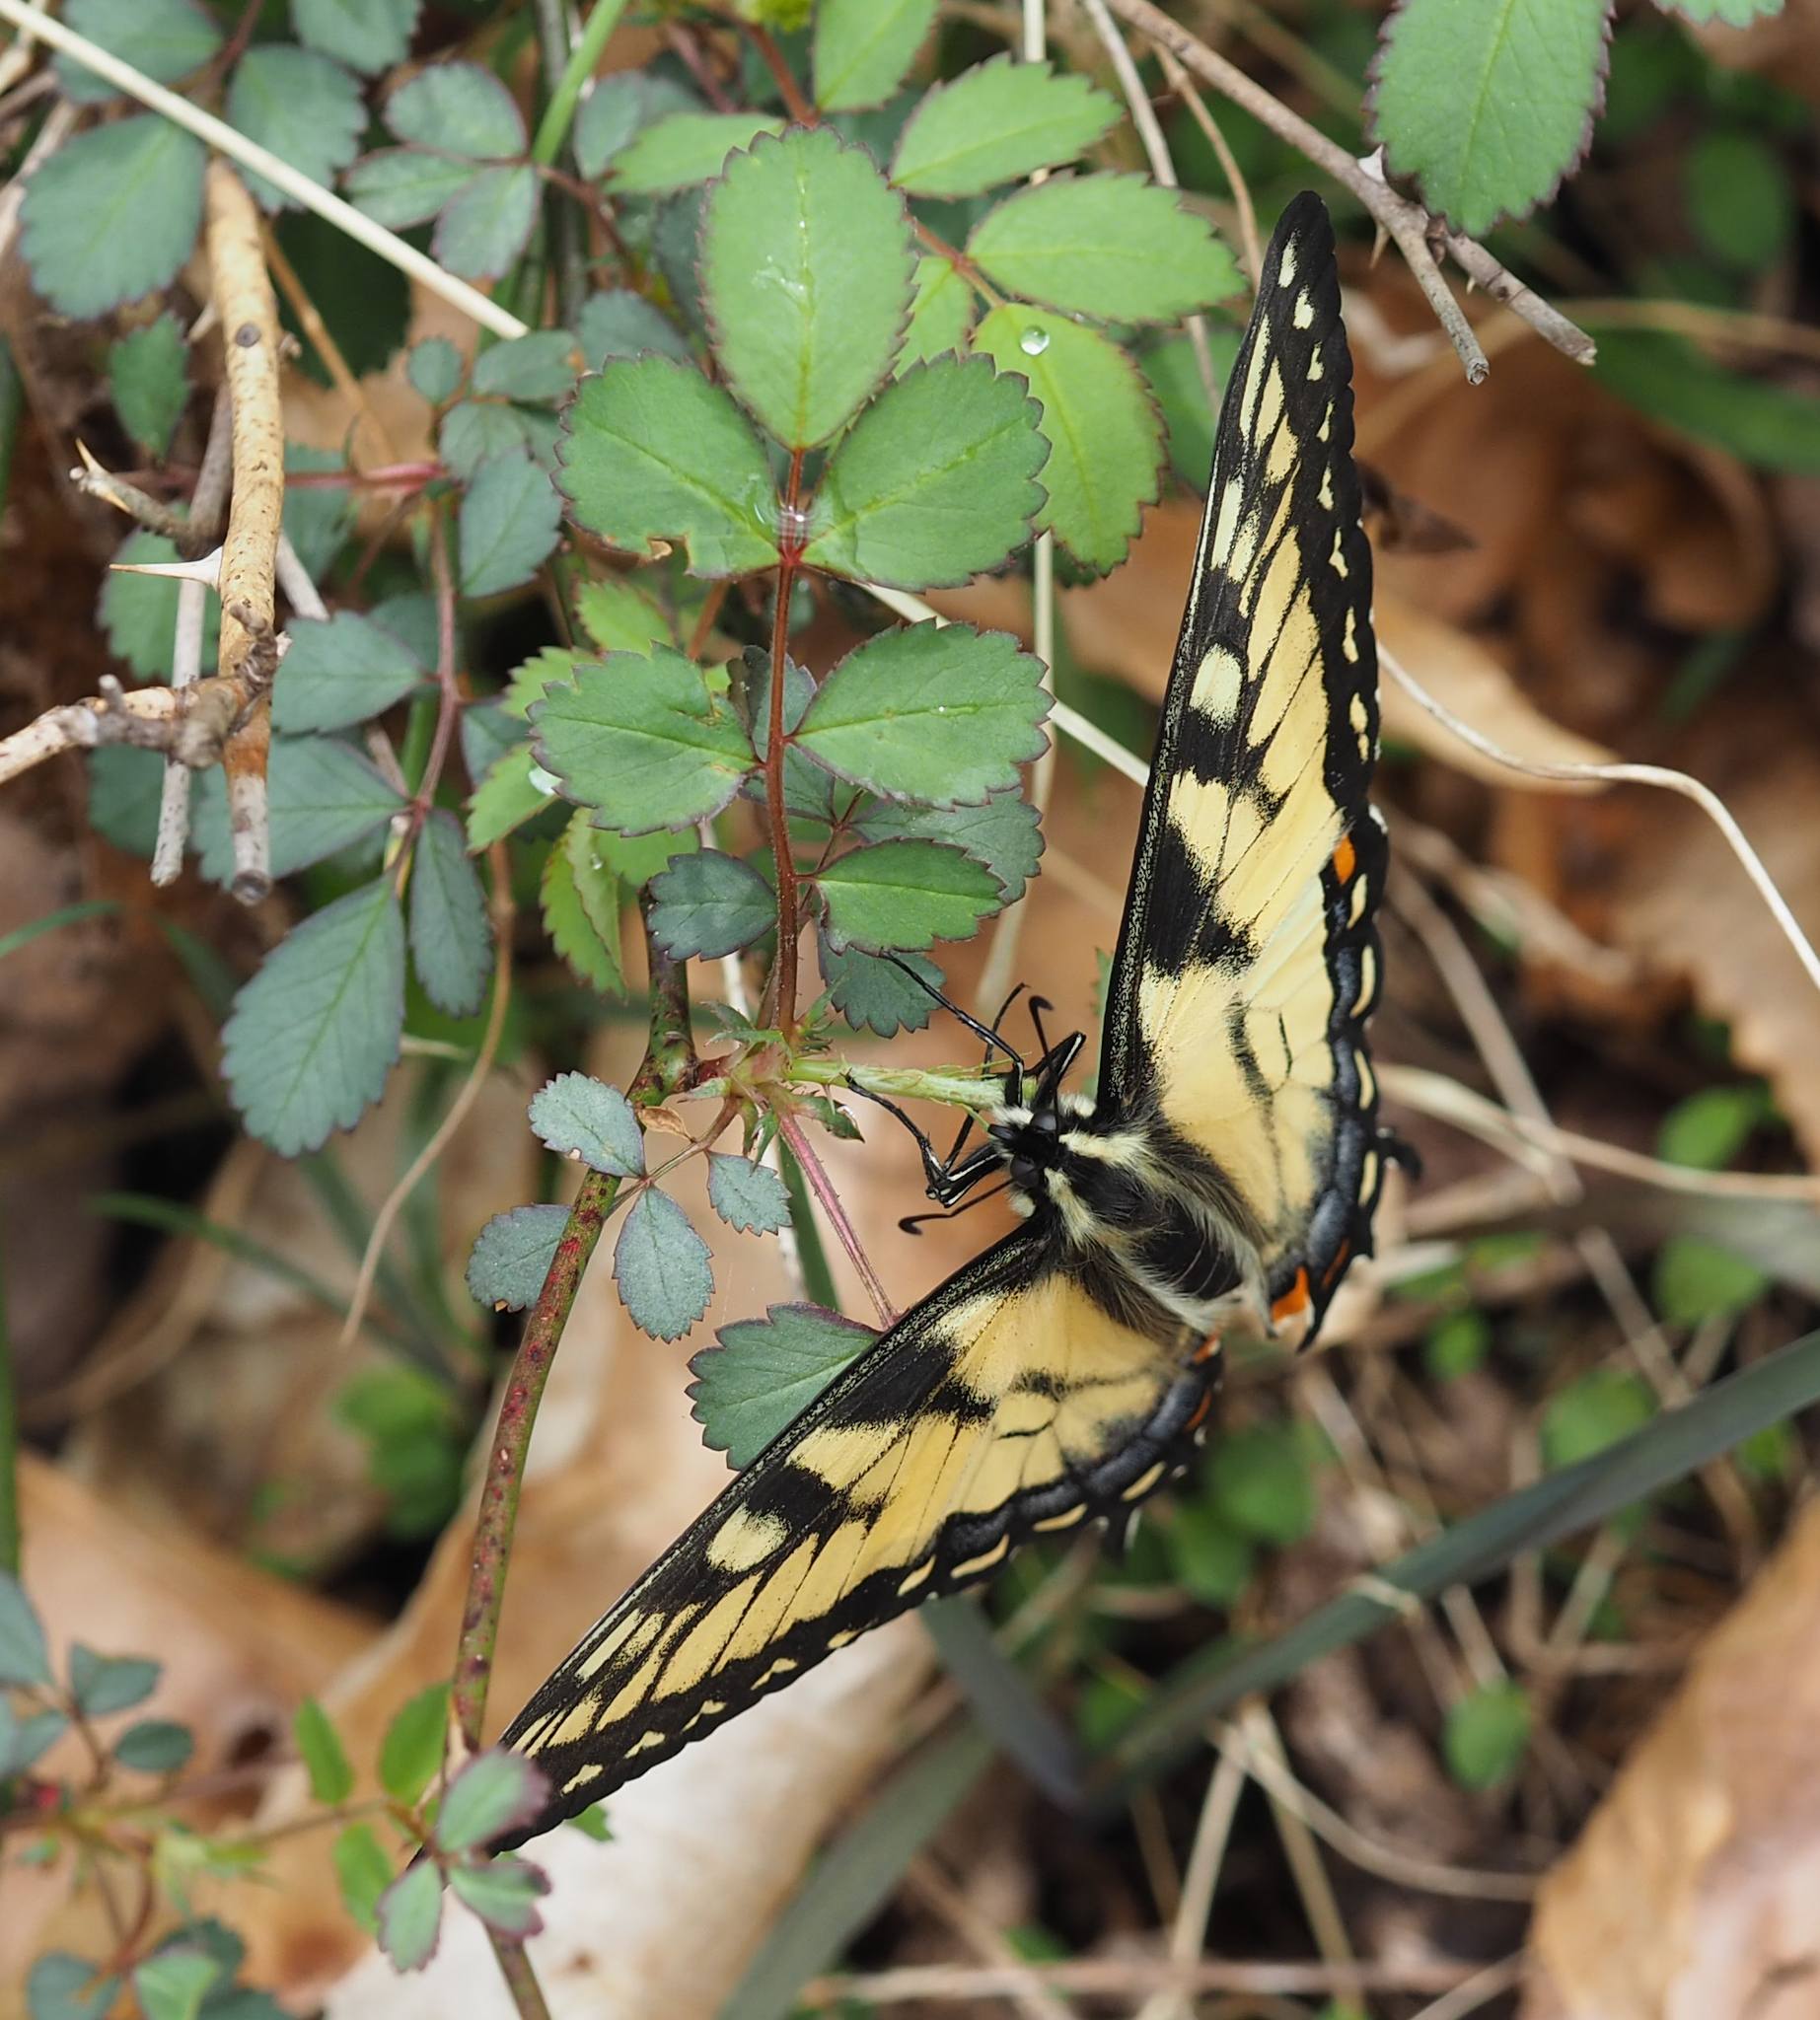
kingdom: Animalia
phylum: Arthropoda
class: Insecta
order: Lepidoptera
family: Papilionidae
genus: Papilio
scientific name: Papilio glaucus
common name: Tiger swallowtail
